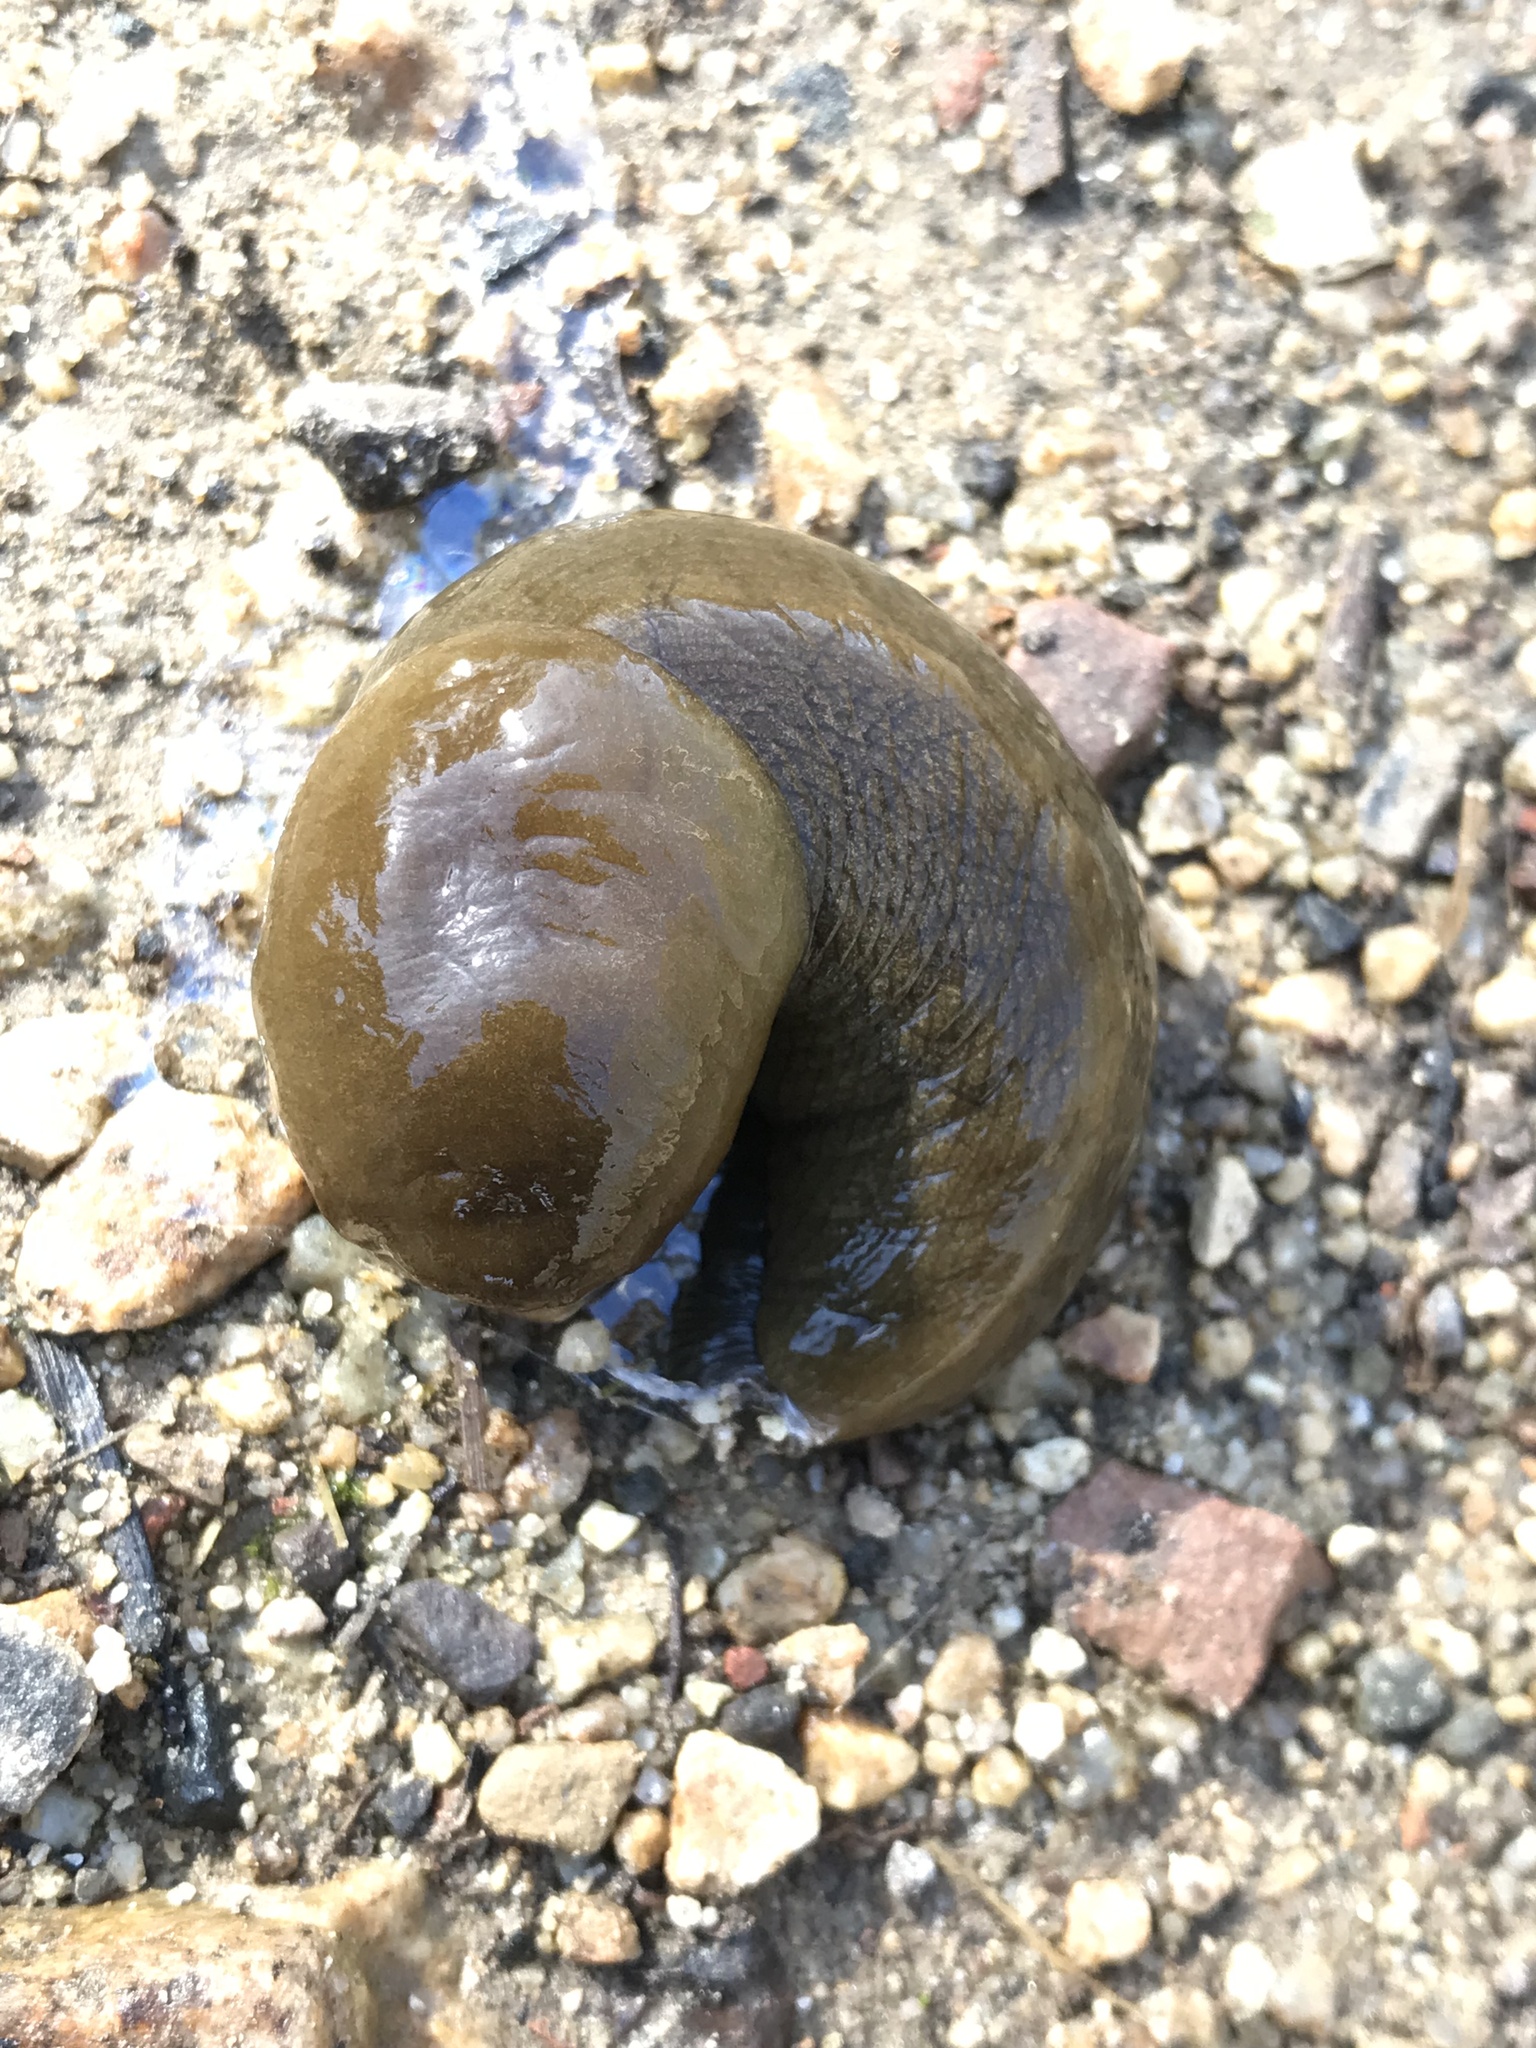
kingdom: Animalia
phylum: Mollusca
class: Gastropoda
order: Stylommatophora
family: Ariolimacidae
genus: Ariolimax
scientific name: Ariolimax buttoni
